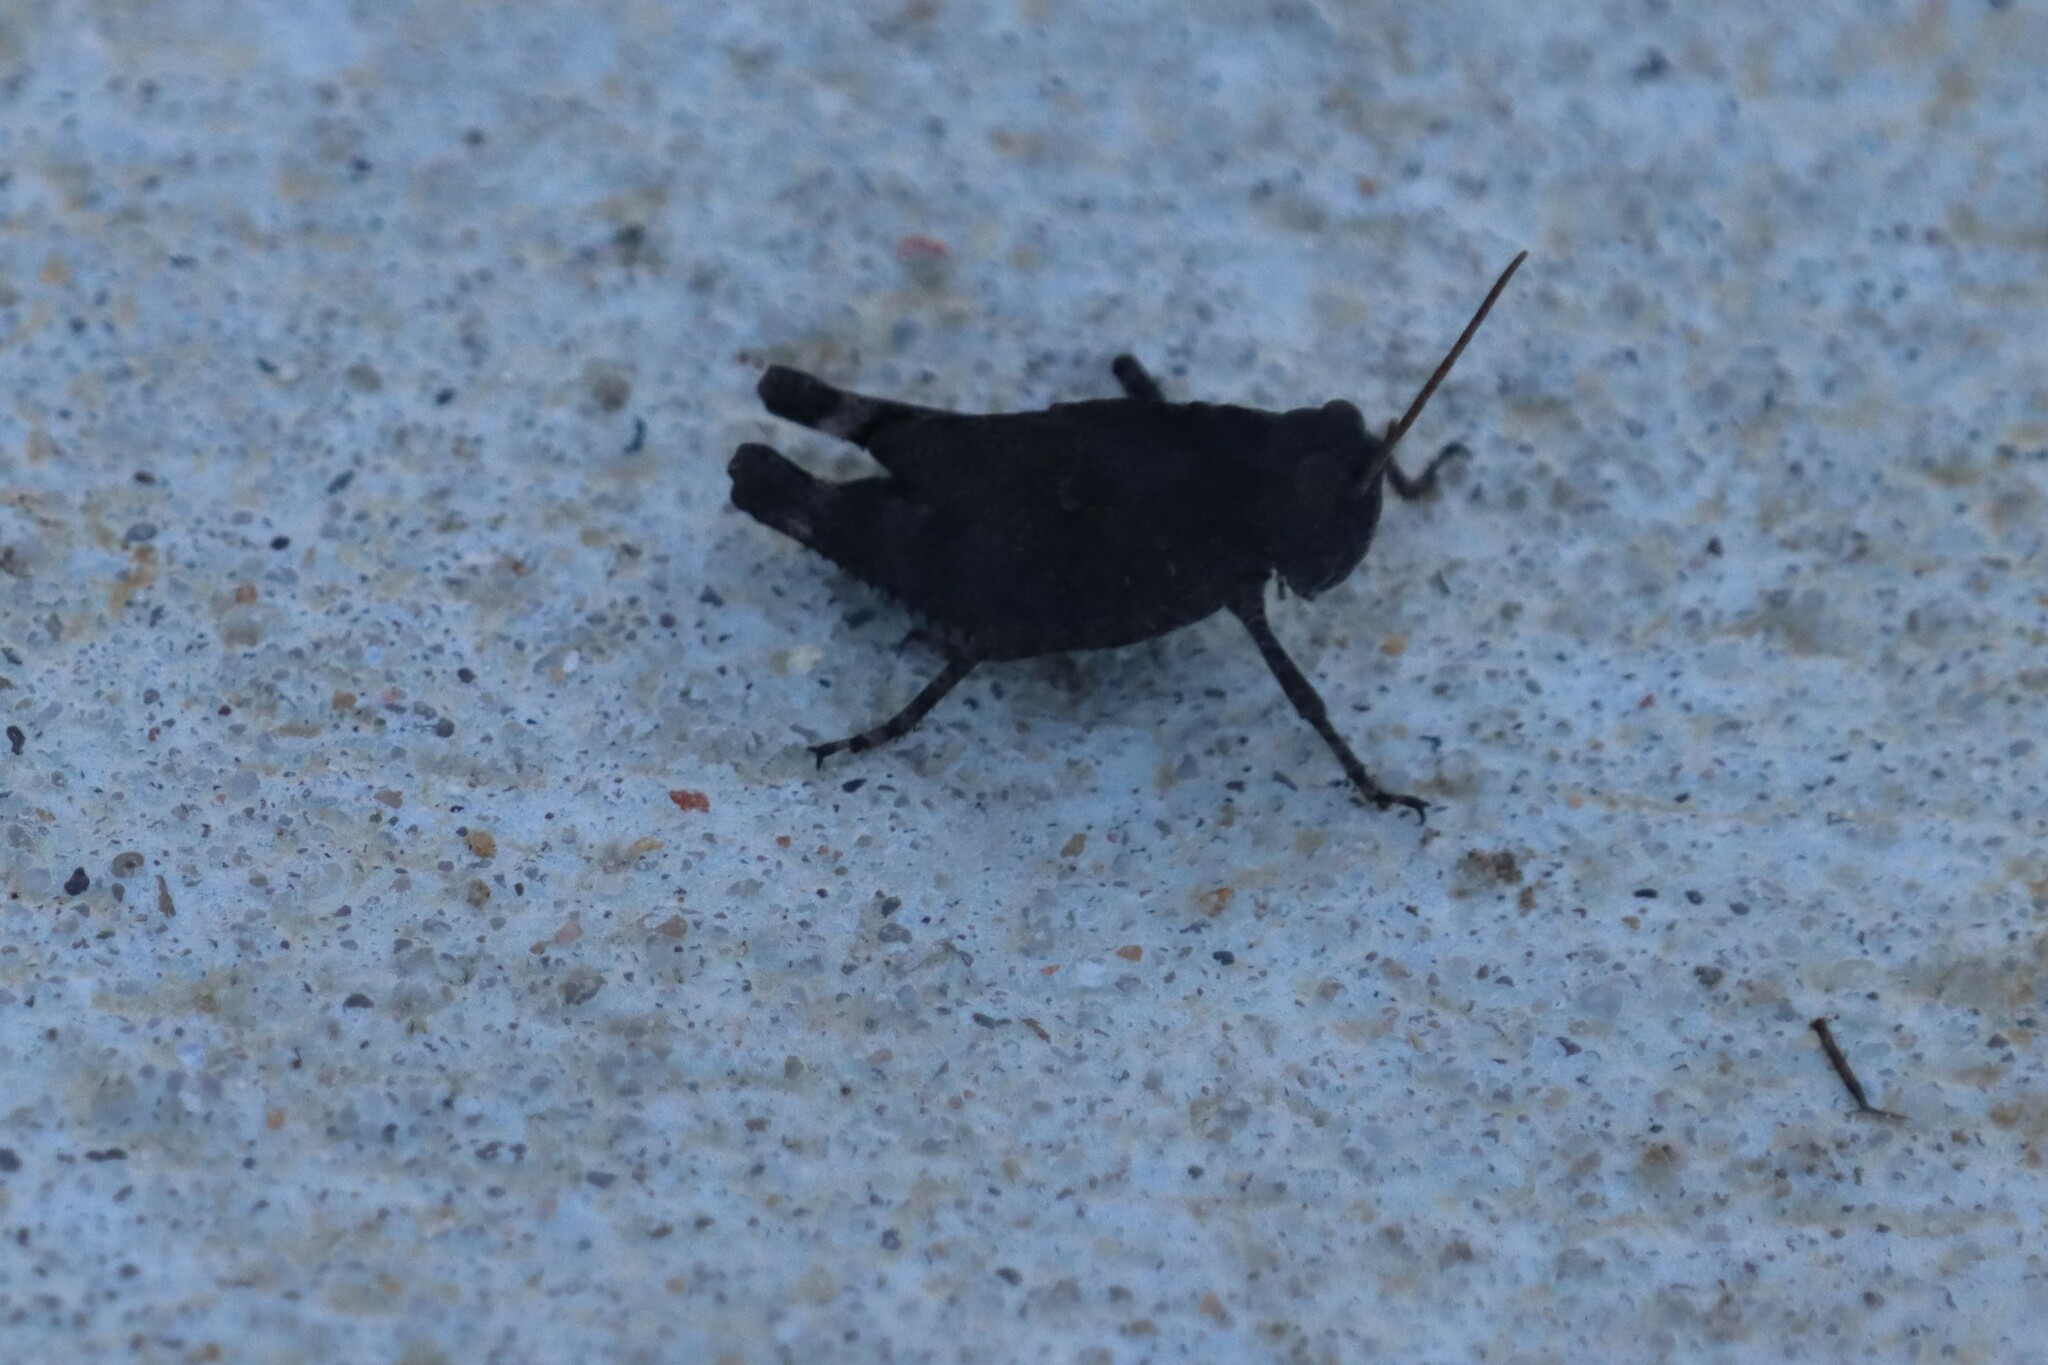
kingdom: Animalia
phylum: Arthropoda
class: Insecta
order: Orthoptera
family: Acrididae
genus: Dissosteira
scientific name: Dissosteira carolina
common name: Carolina grasshopper
